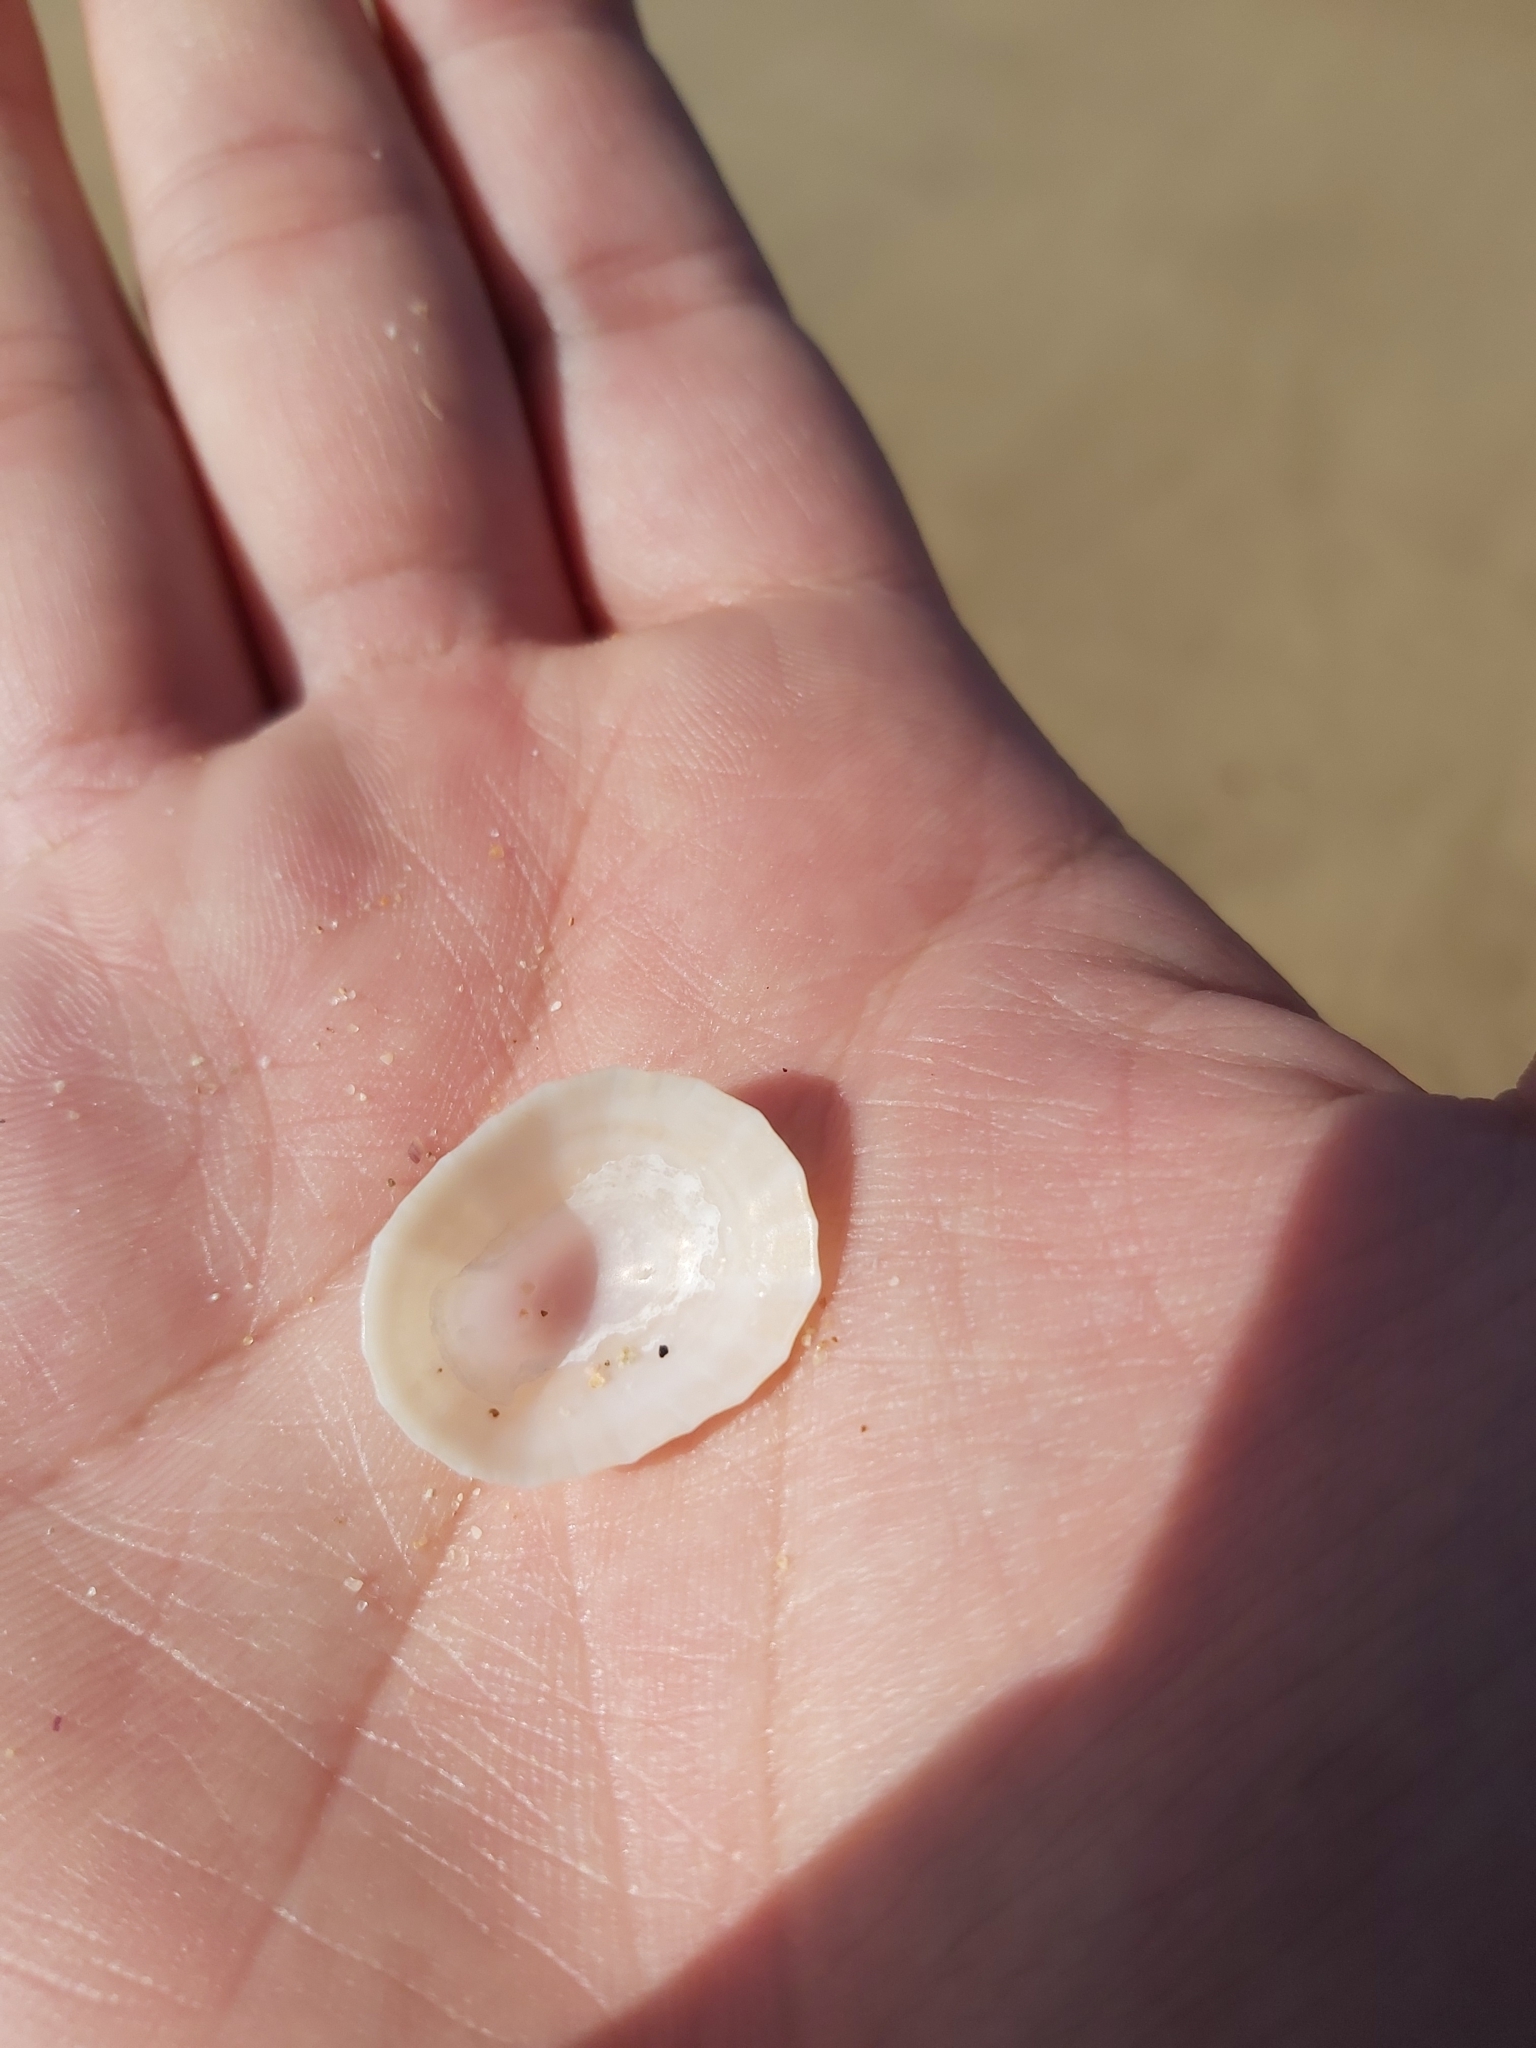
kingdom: Animalia
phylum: Mollusca
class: Gastropoda
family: Patellidae
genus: Scutellastra
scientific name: Scutellastra peronii
